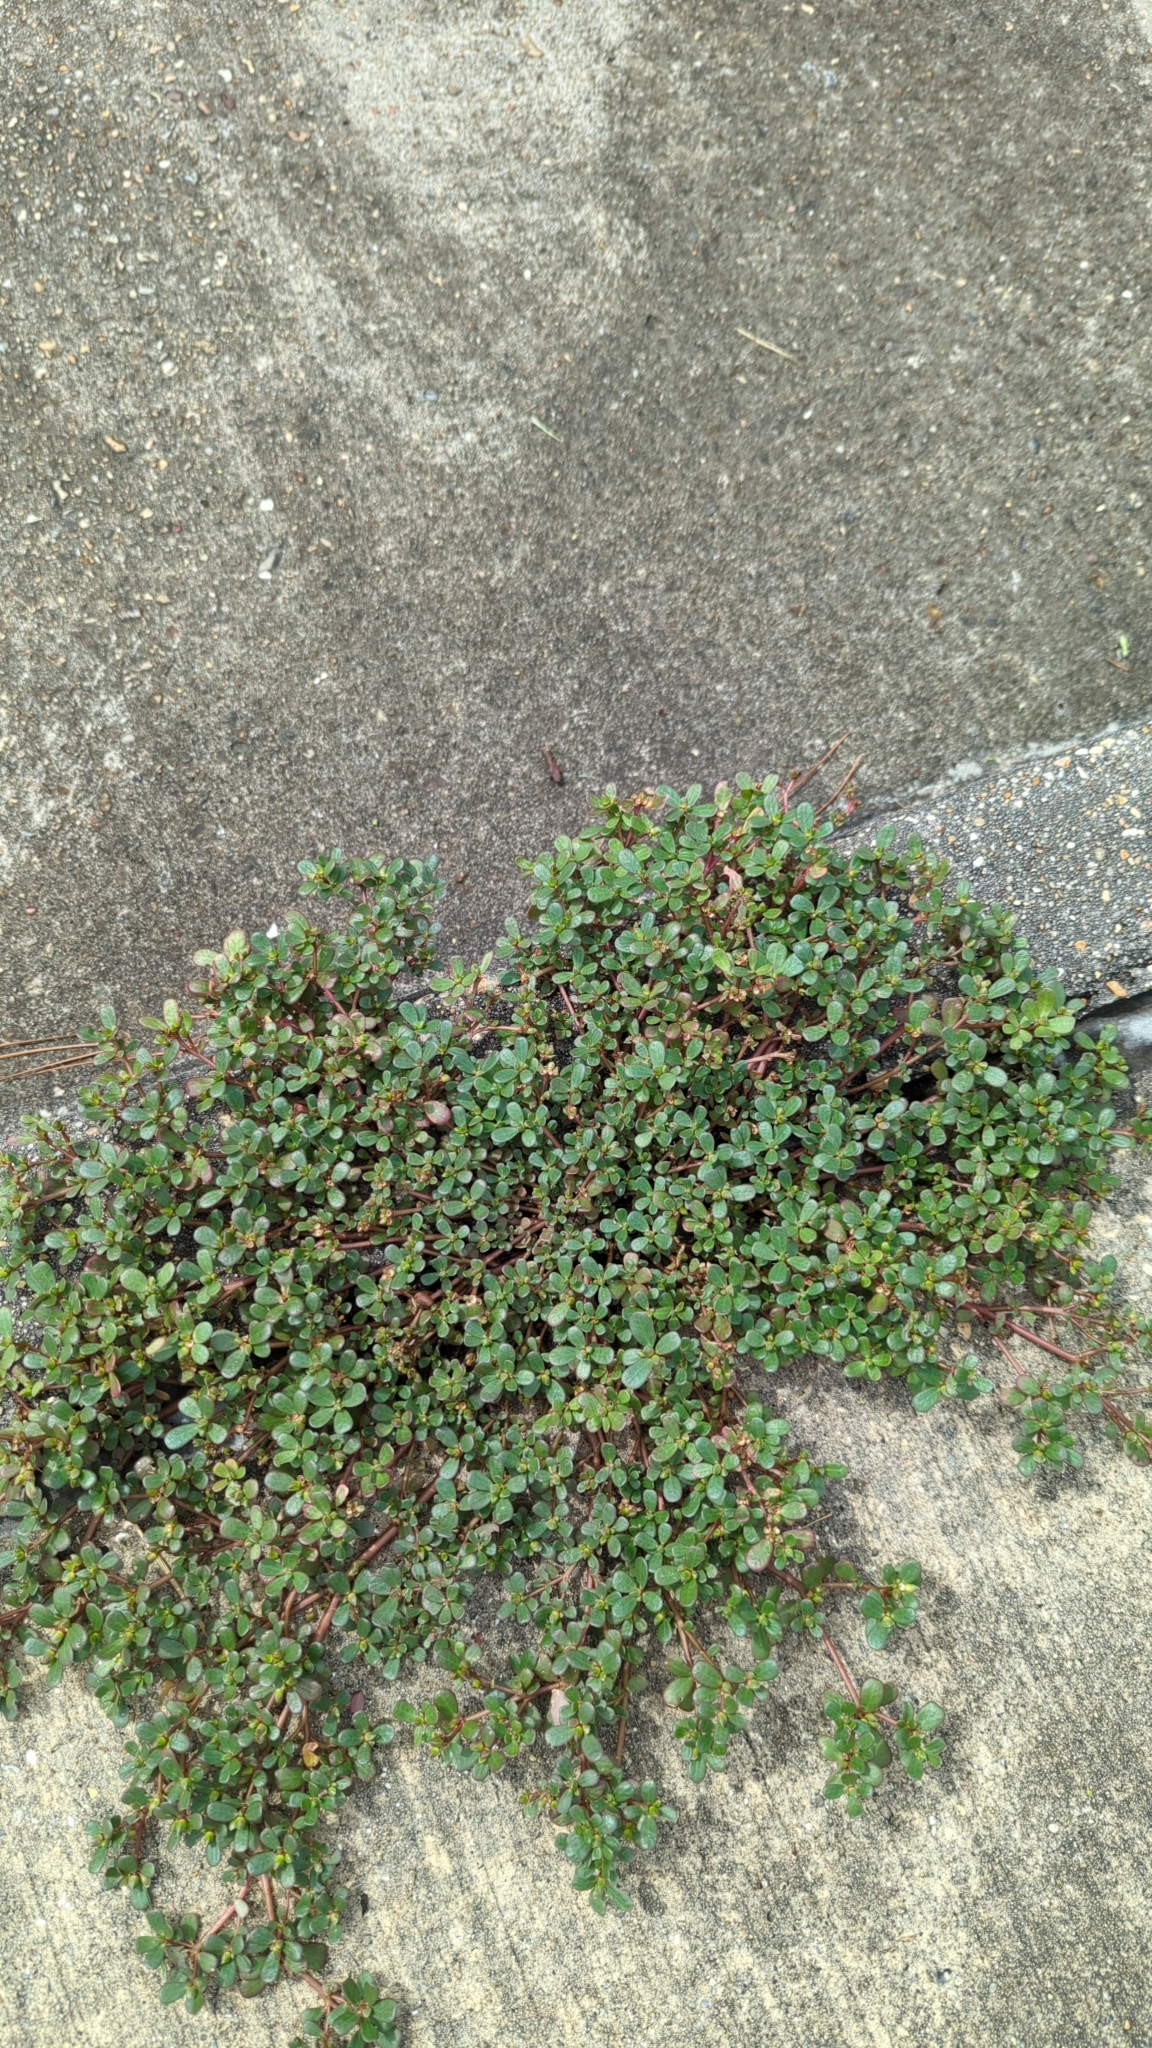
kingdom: Plantae
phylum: Tracheophyta
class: Magnoliopsida
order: Caryophyllales
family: Portulacaceae
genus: Portulaca
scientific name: Portulaca oleracea
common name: Common purslane
